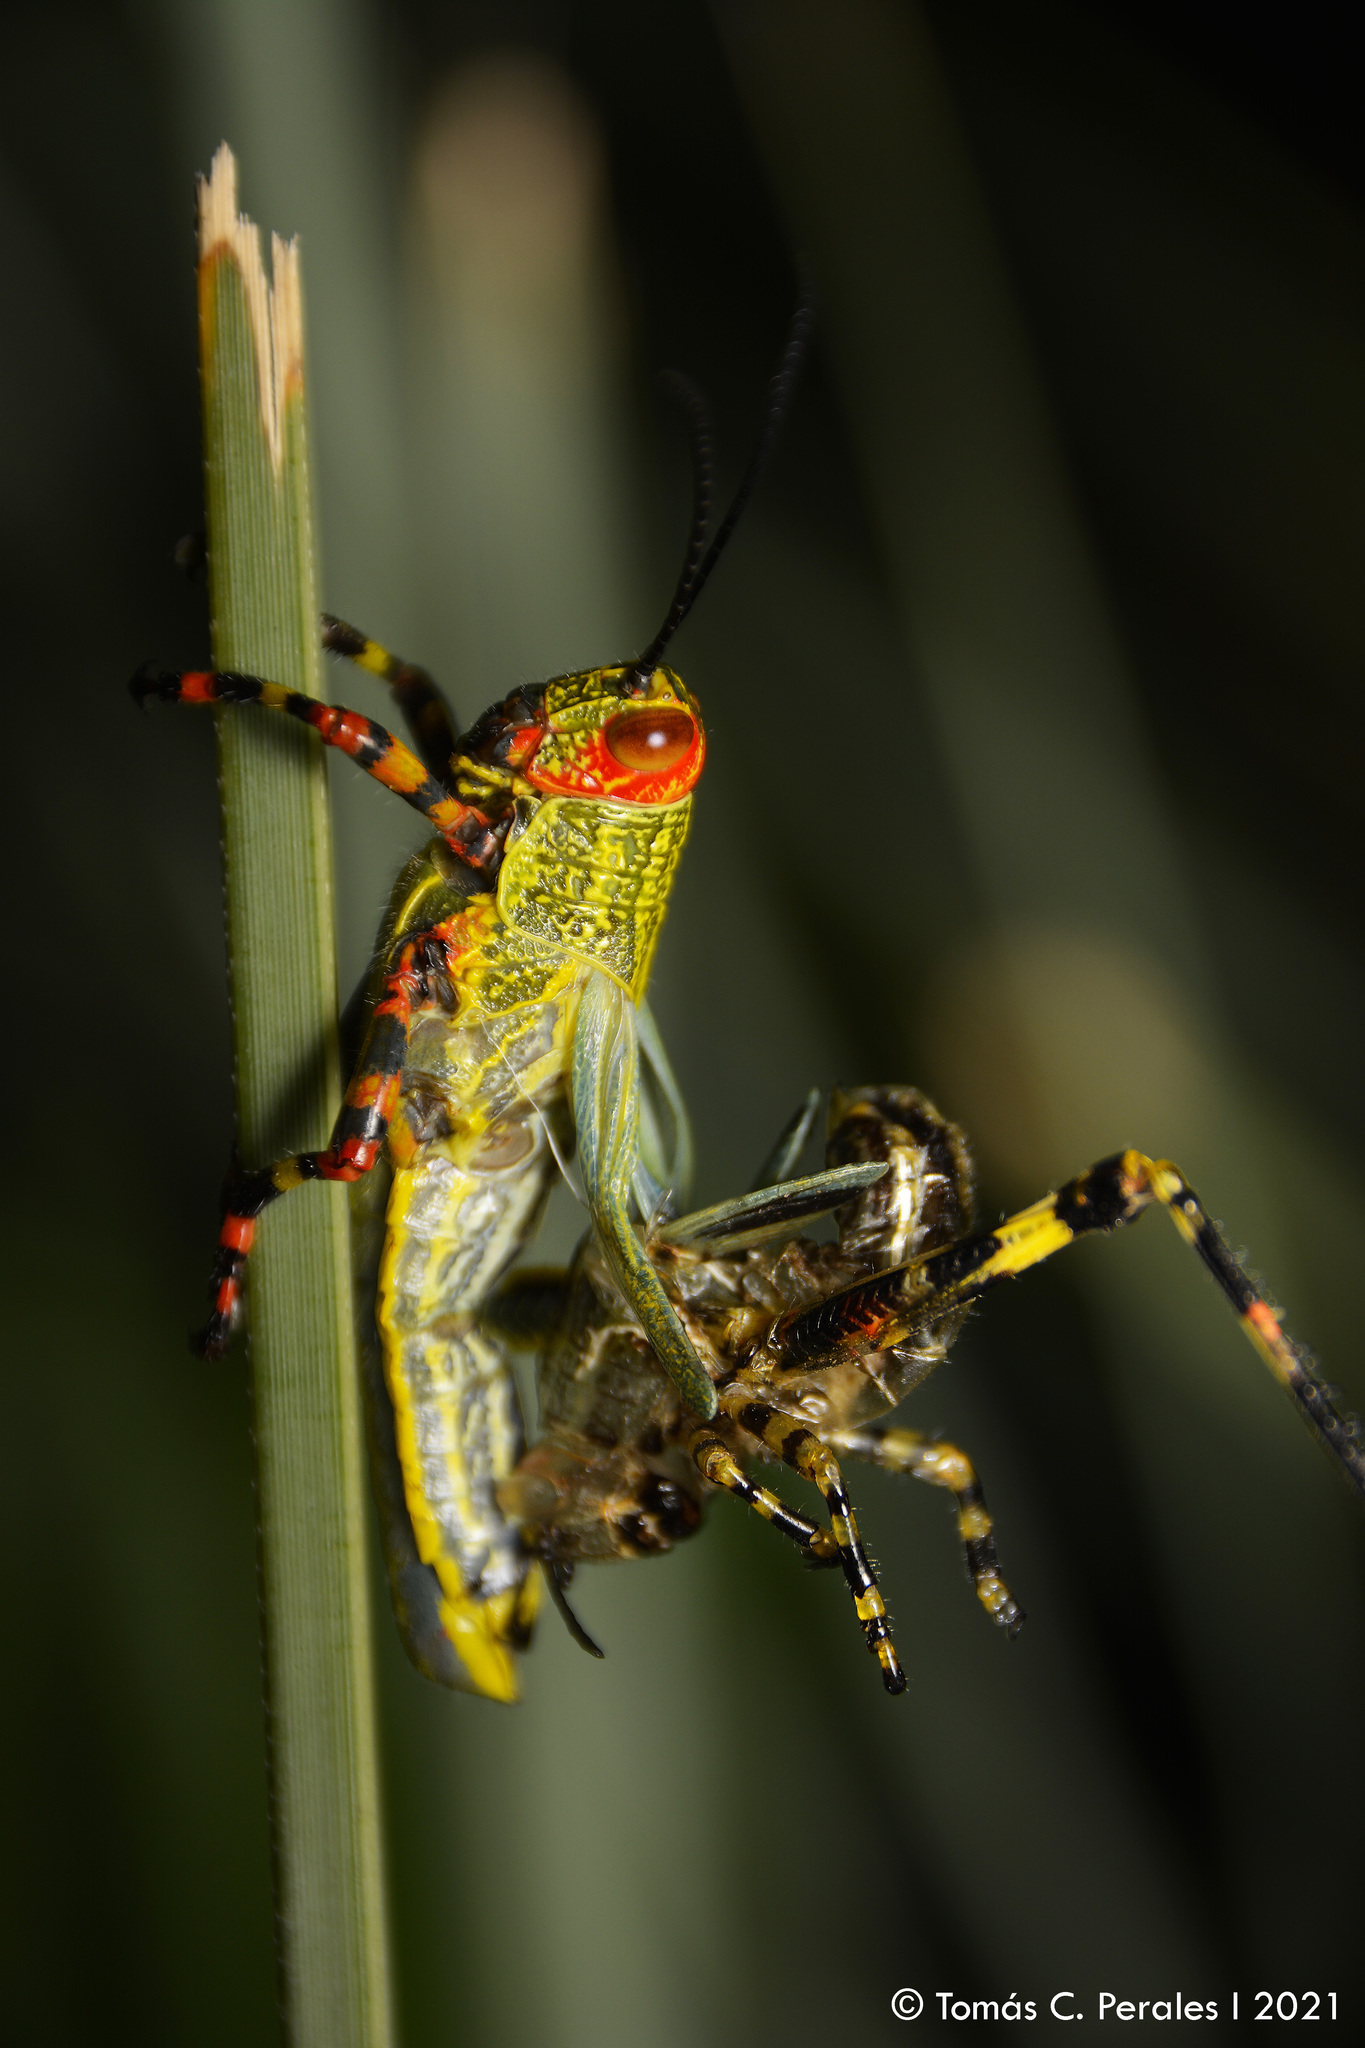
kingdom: Animalia
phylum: Arthropoda
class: Insecta
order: Orthoptera
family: Romaleidae
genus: Zoniopoda
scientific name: Zoniopoda tarsata
